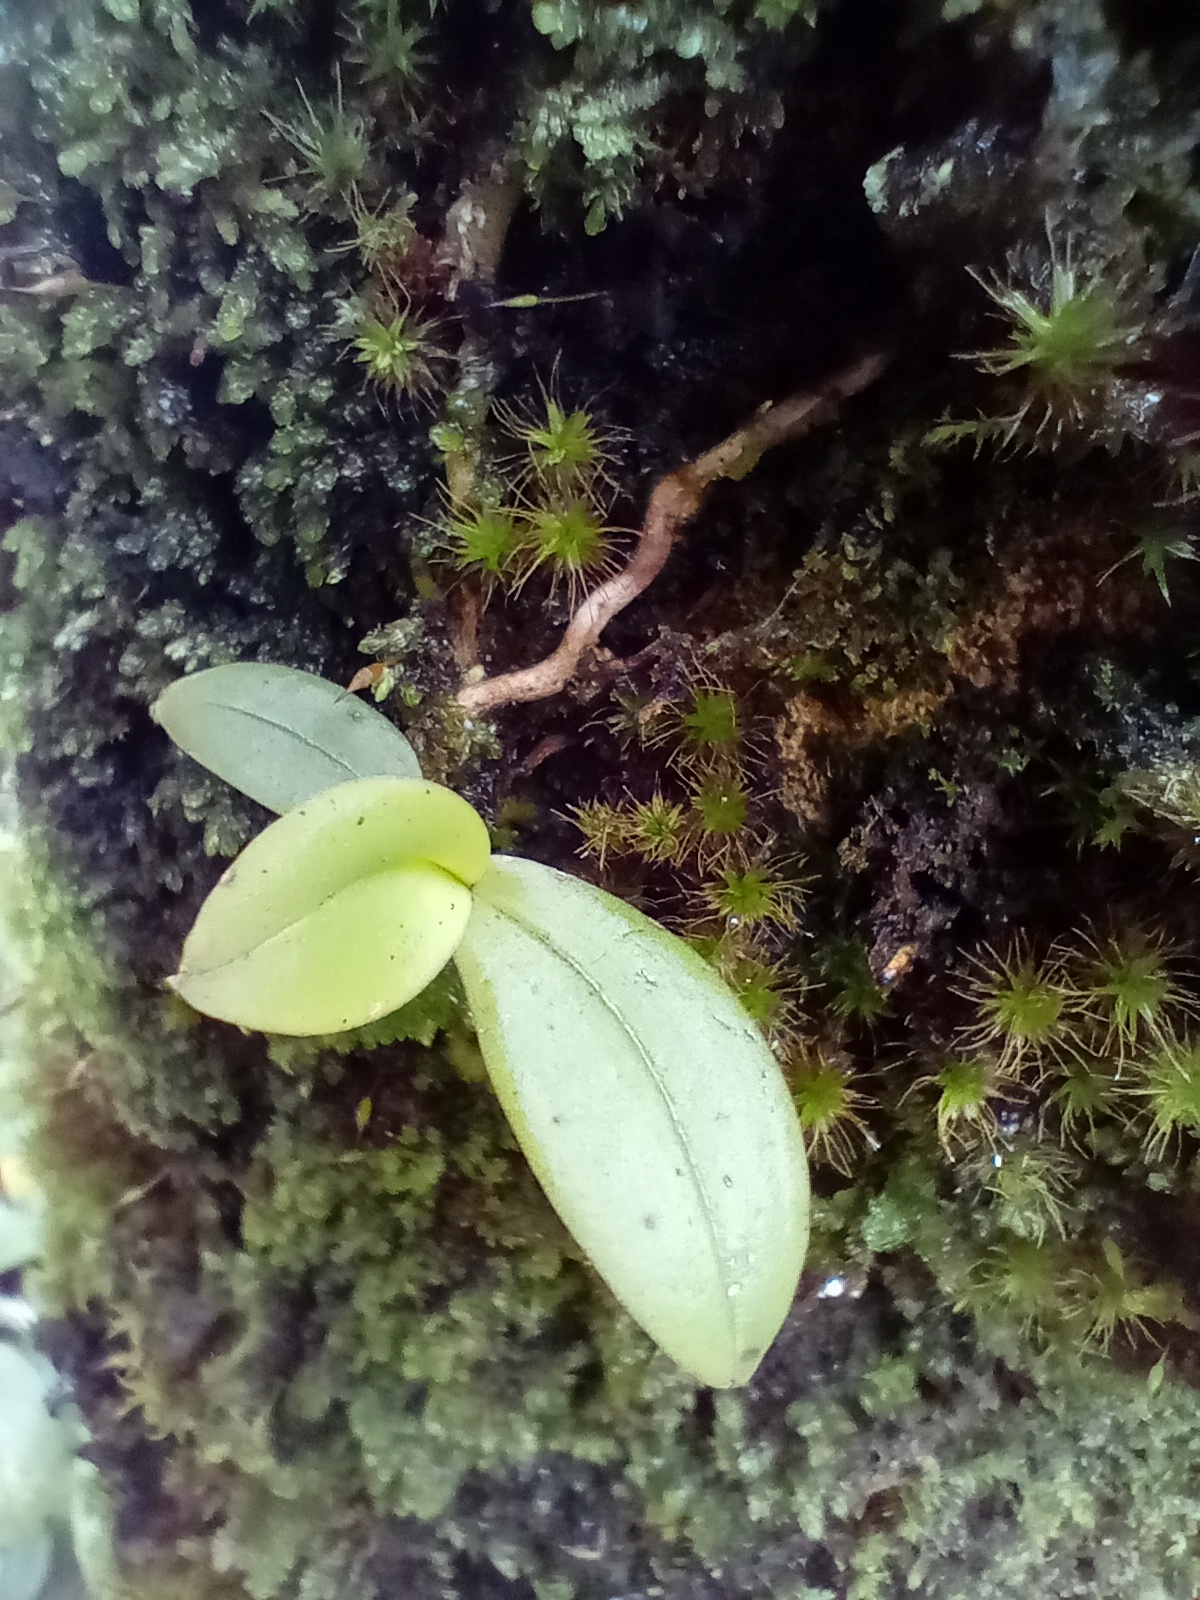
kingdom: Plantae
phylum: Tracheophyta
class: Liliopsida
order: Asparagales
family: Orchidaceae
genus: Drymoanthus
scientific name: Drymoanthus adversus
